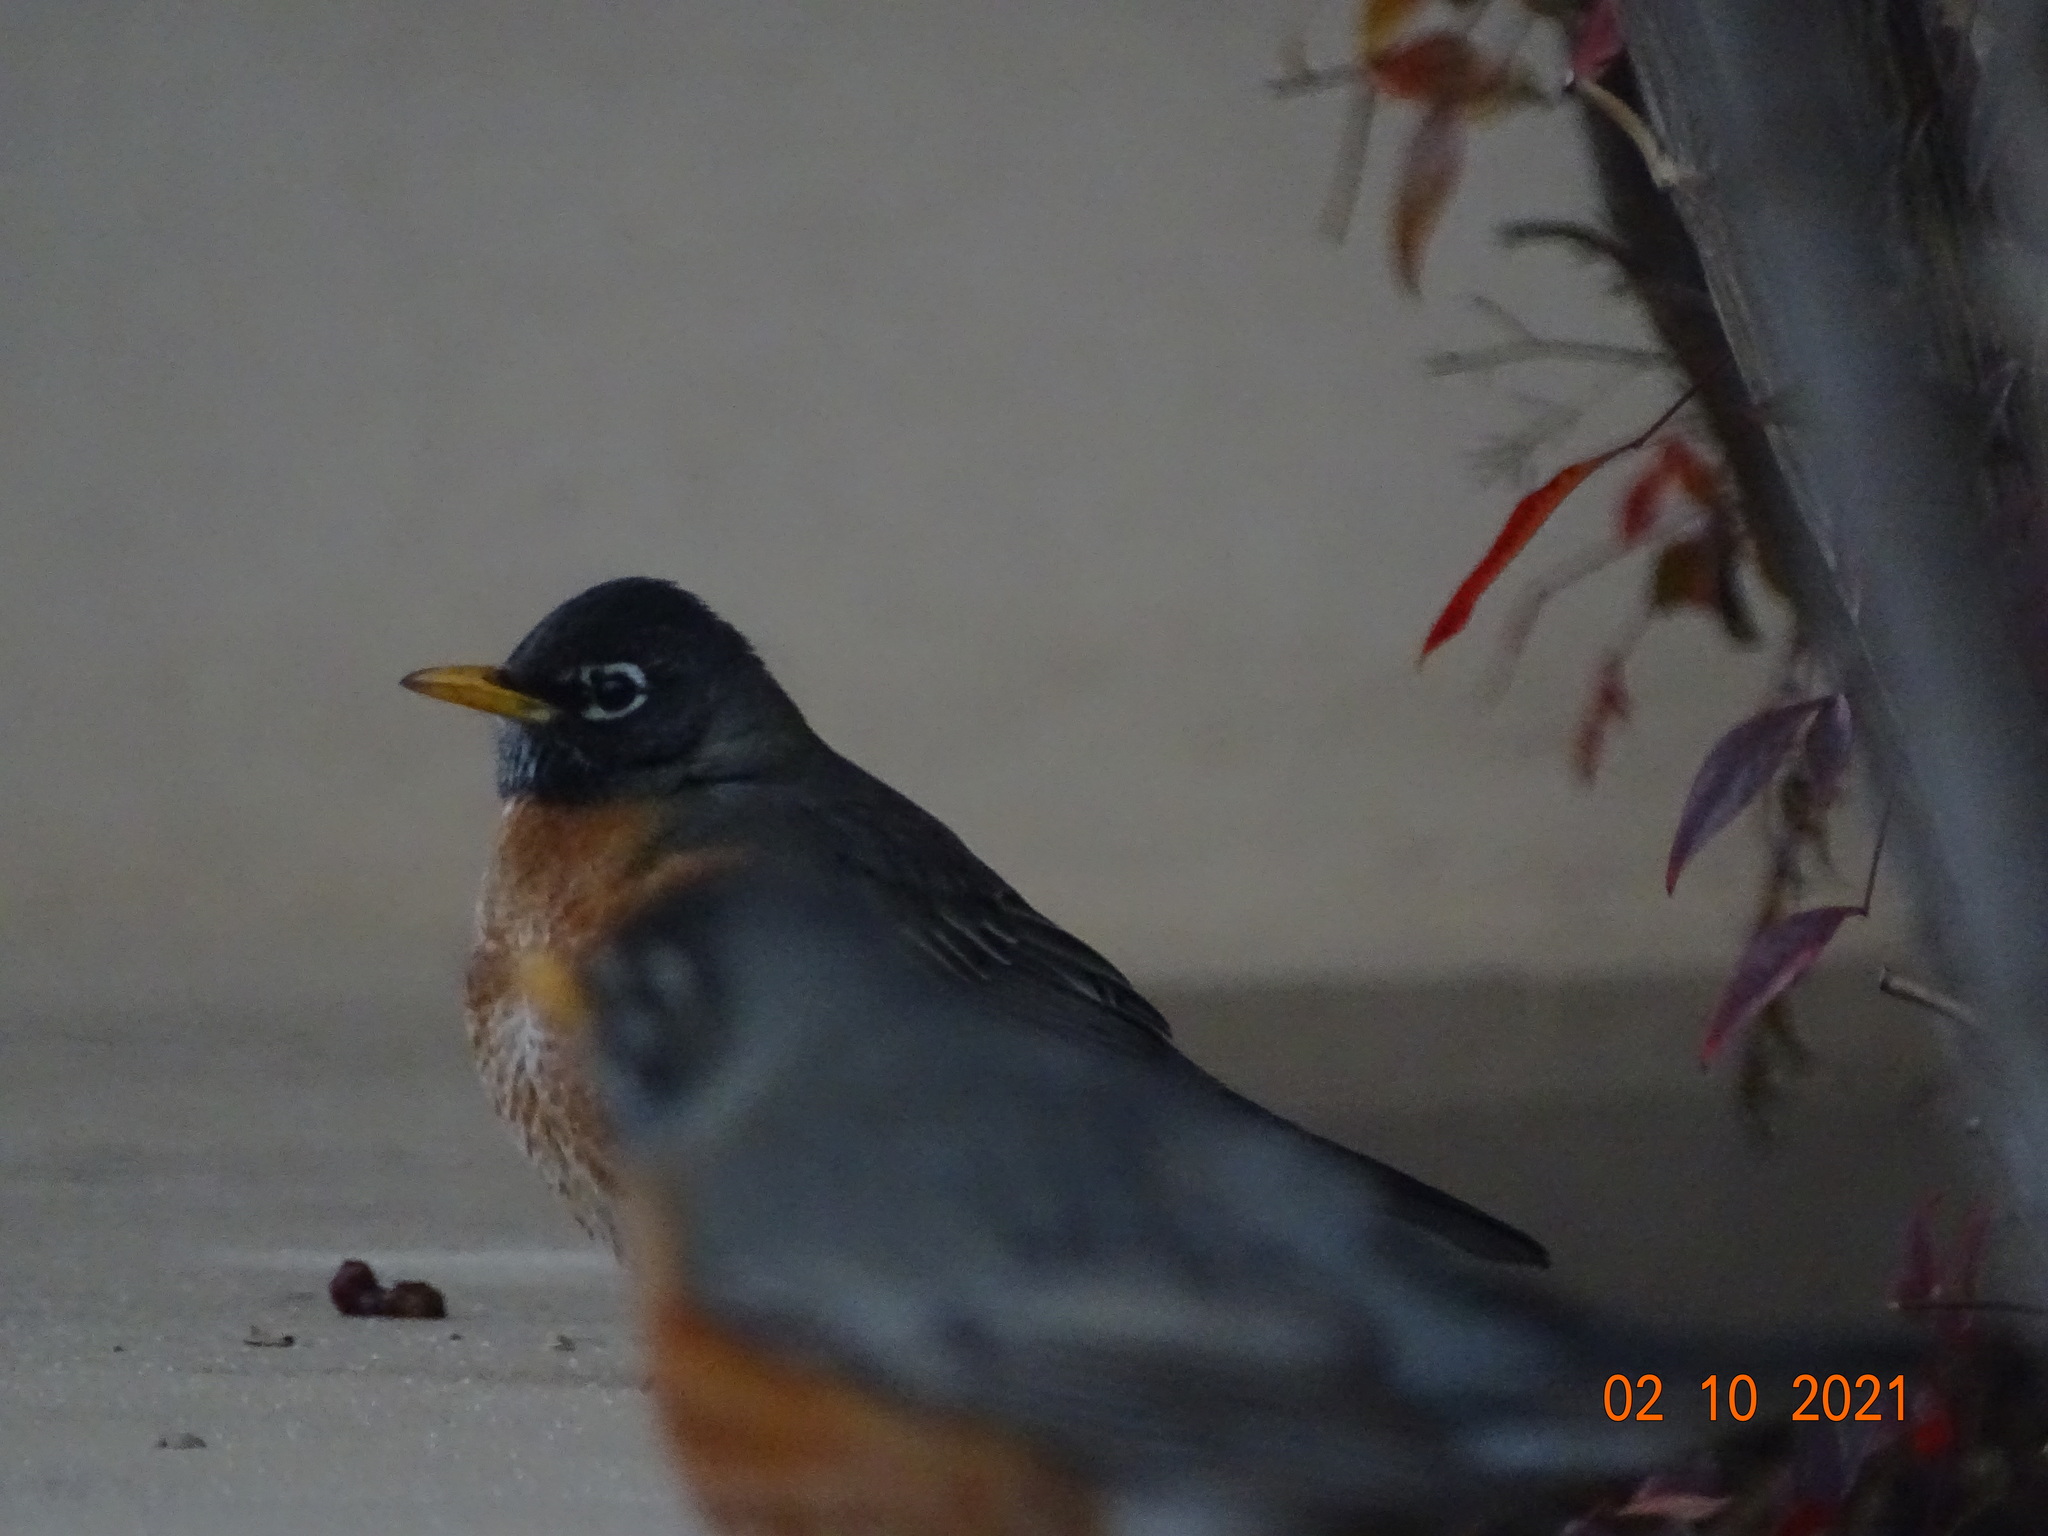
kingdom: Animalia
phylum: Chordata
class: Aves
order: Passeriformes
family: Turdidae
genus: Turdus
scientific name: Turdus migratorius
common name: American robin
